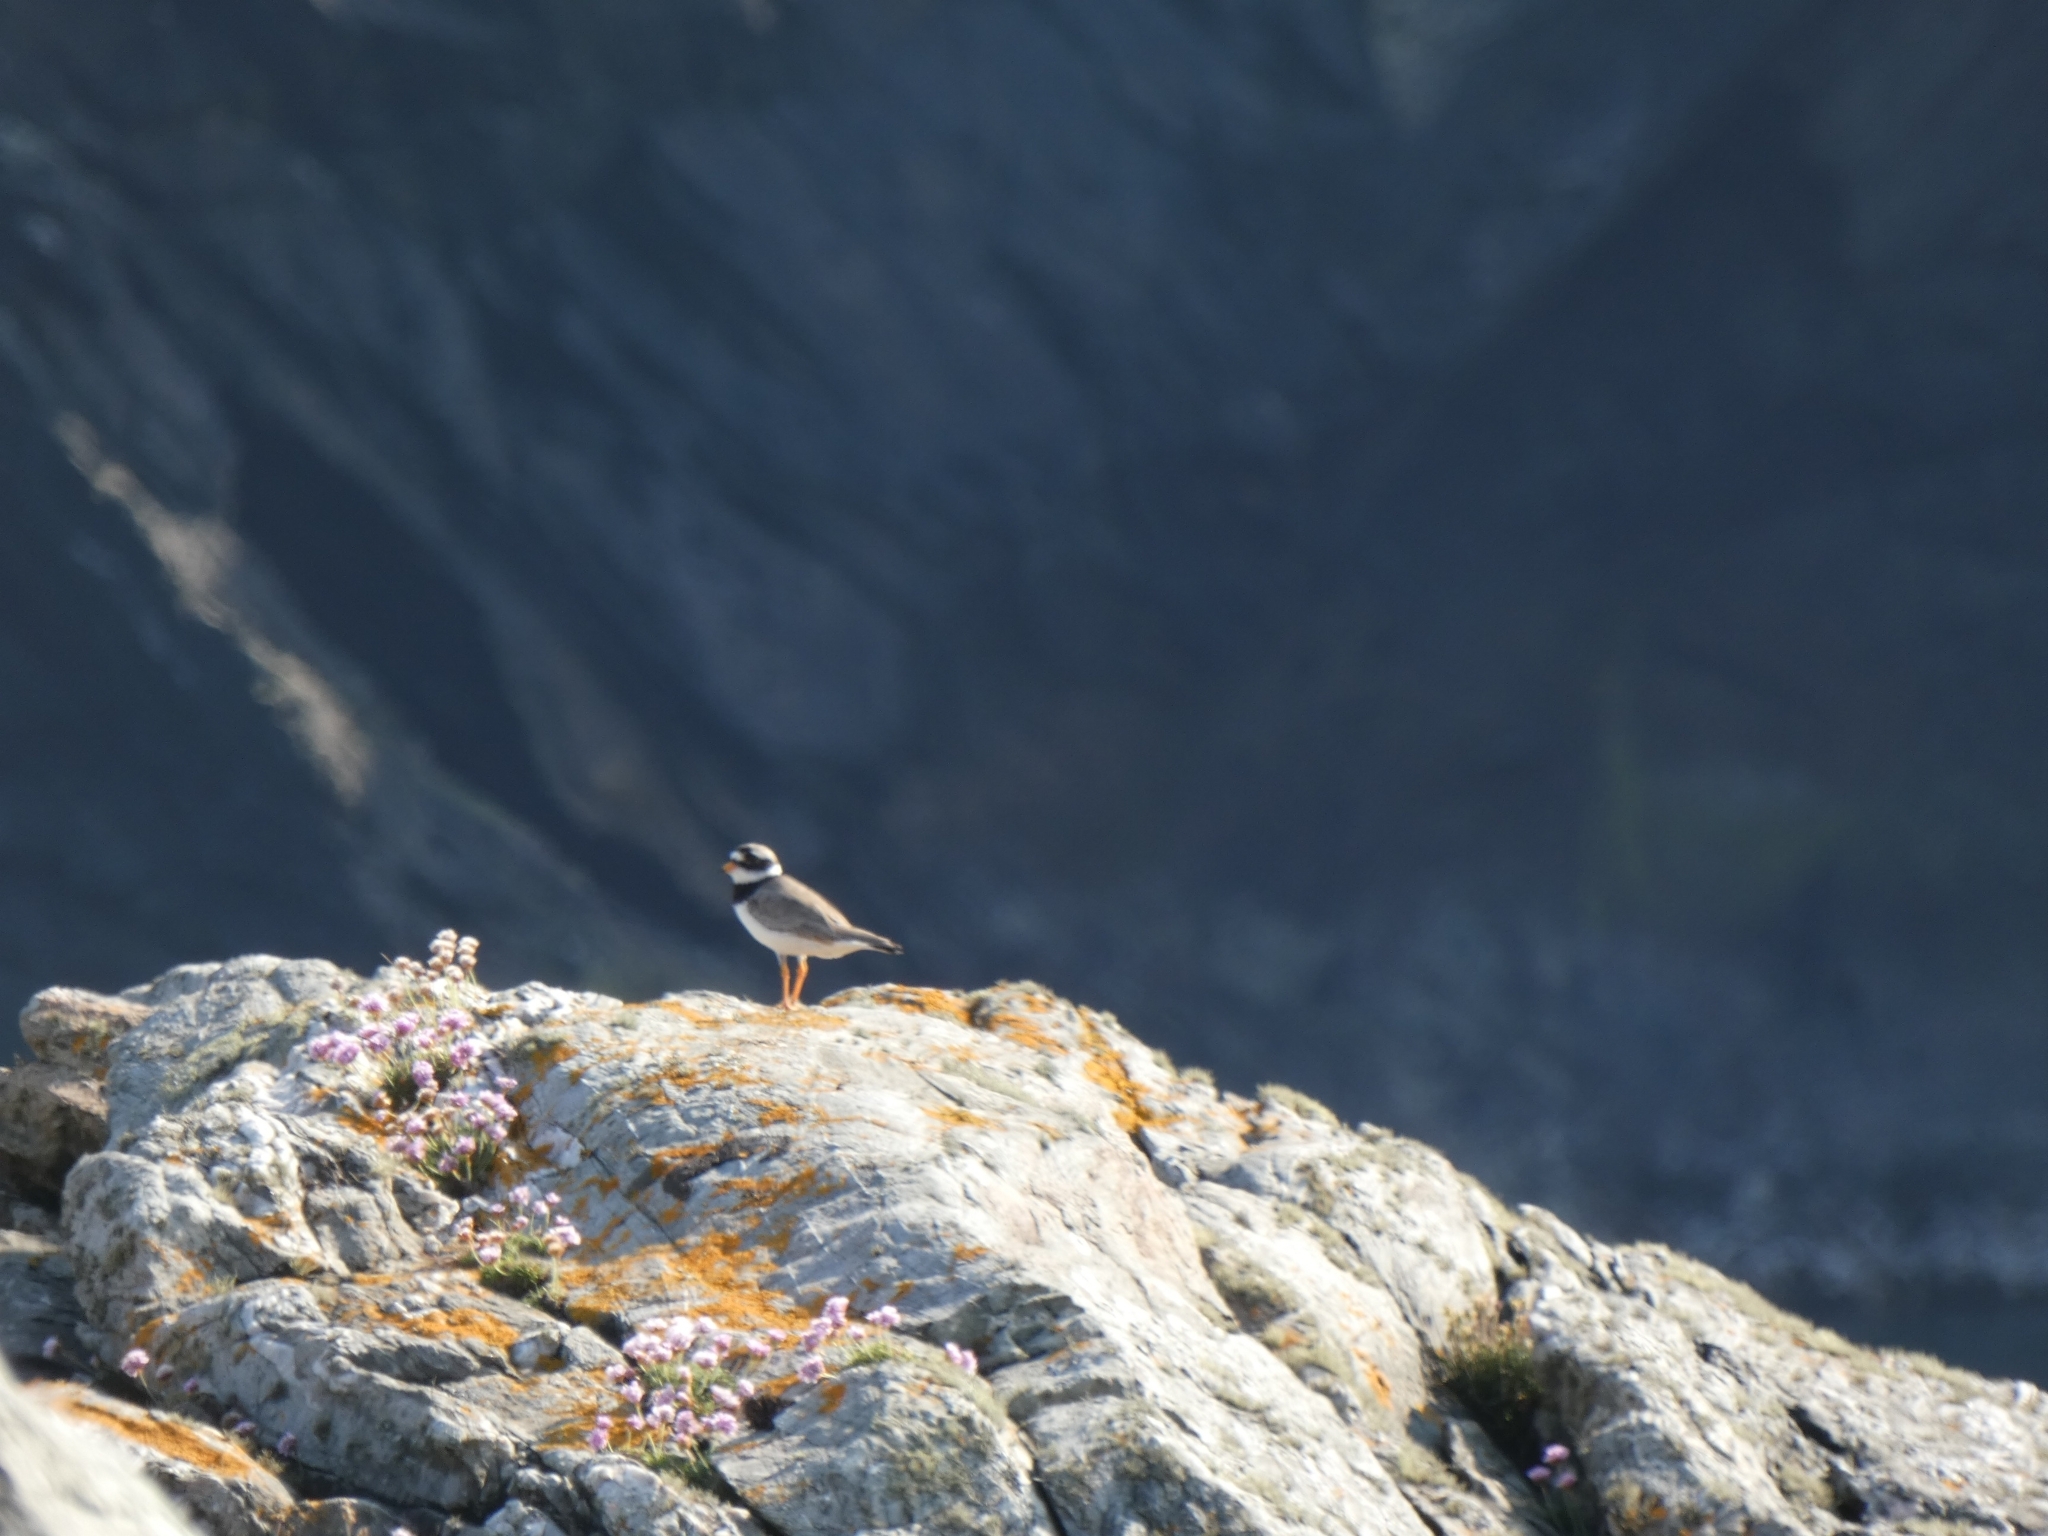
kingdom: Animalia
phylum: Chordata
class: Aves
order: Charadriiformes
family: Charadriidae
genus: Charadrius
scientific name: Charadrius hiaticula
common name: Common ringed plover
